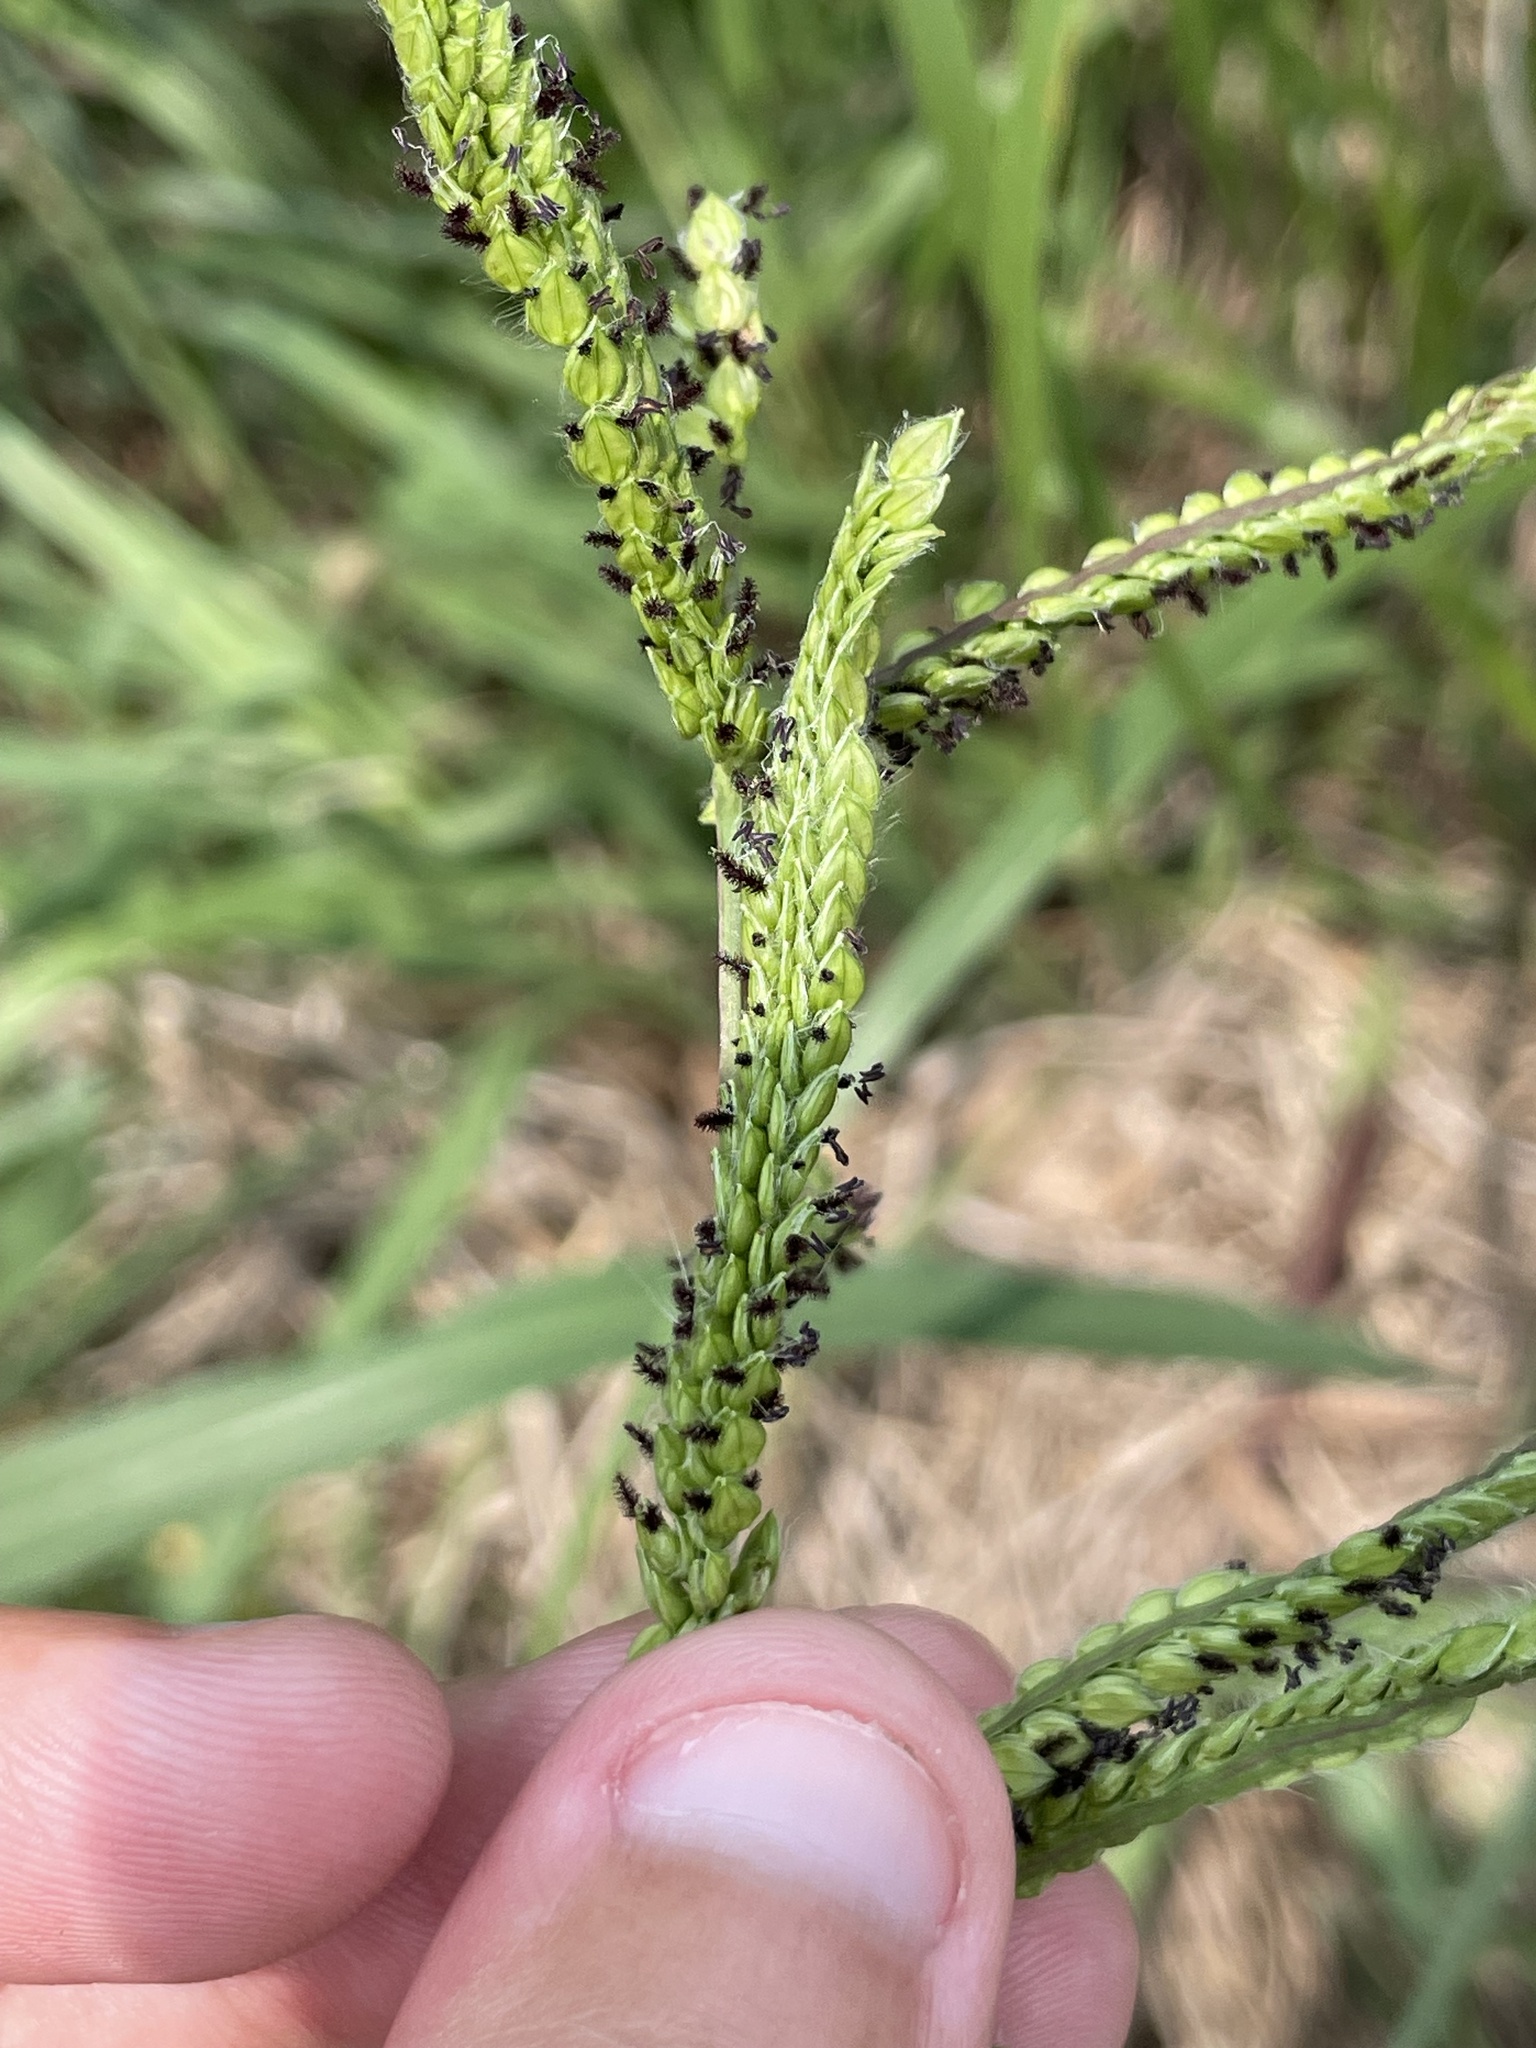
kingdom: Plantae
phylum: Tracheophyta
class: Liliopsida
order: Poales
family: Poaceae
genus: Paspalum
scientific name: Paspalum dilatatum
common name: Dallisgrass
